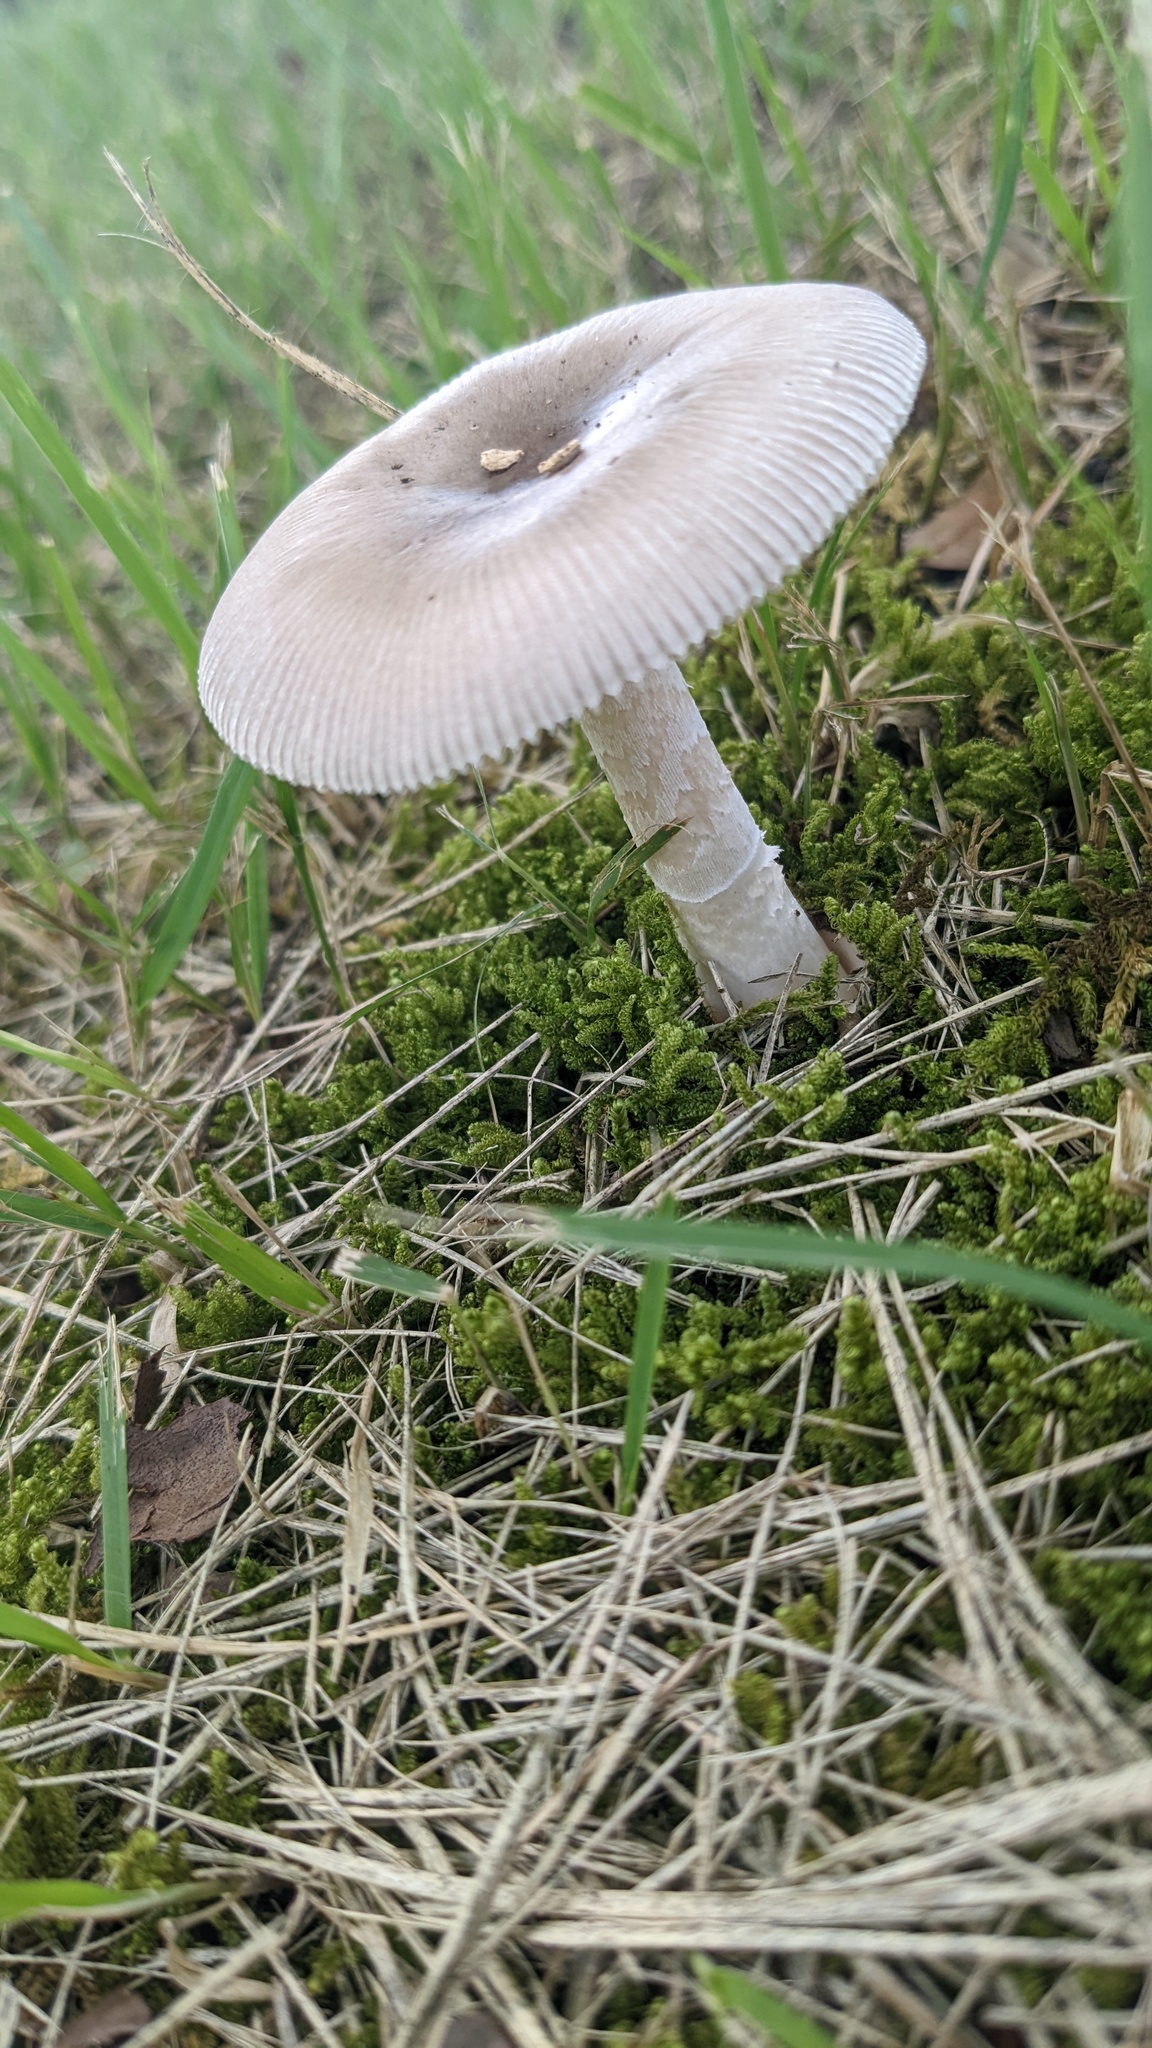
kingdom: Fungi
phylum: Basidiomycota
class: Agaricomycetes
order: Agaricales
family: Amanitaceae
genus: Amanita
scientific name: Amanita vaginata
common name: Grisette
